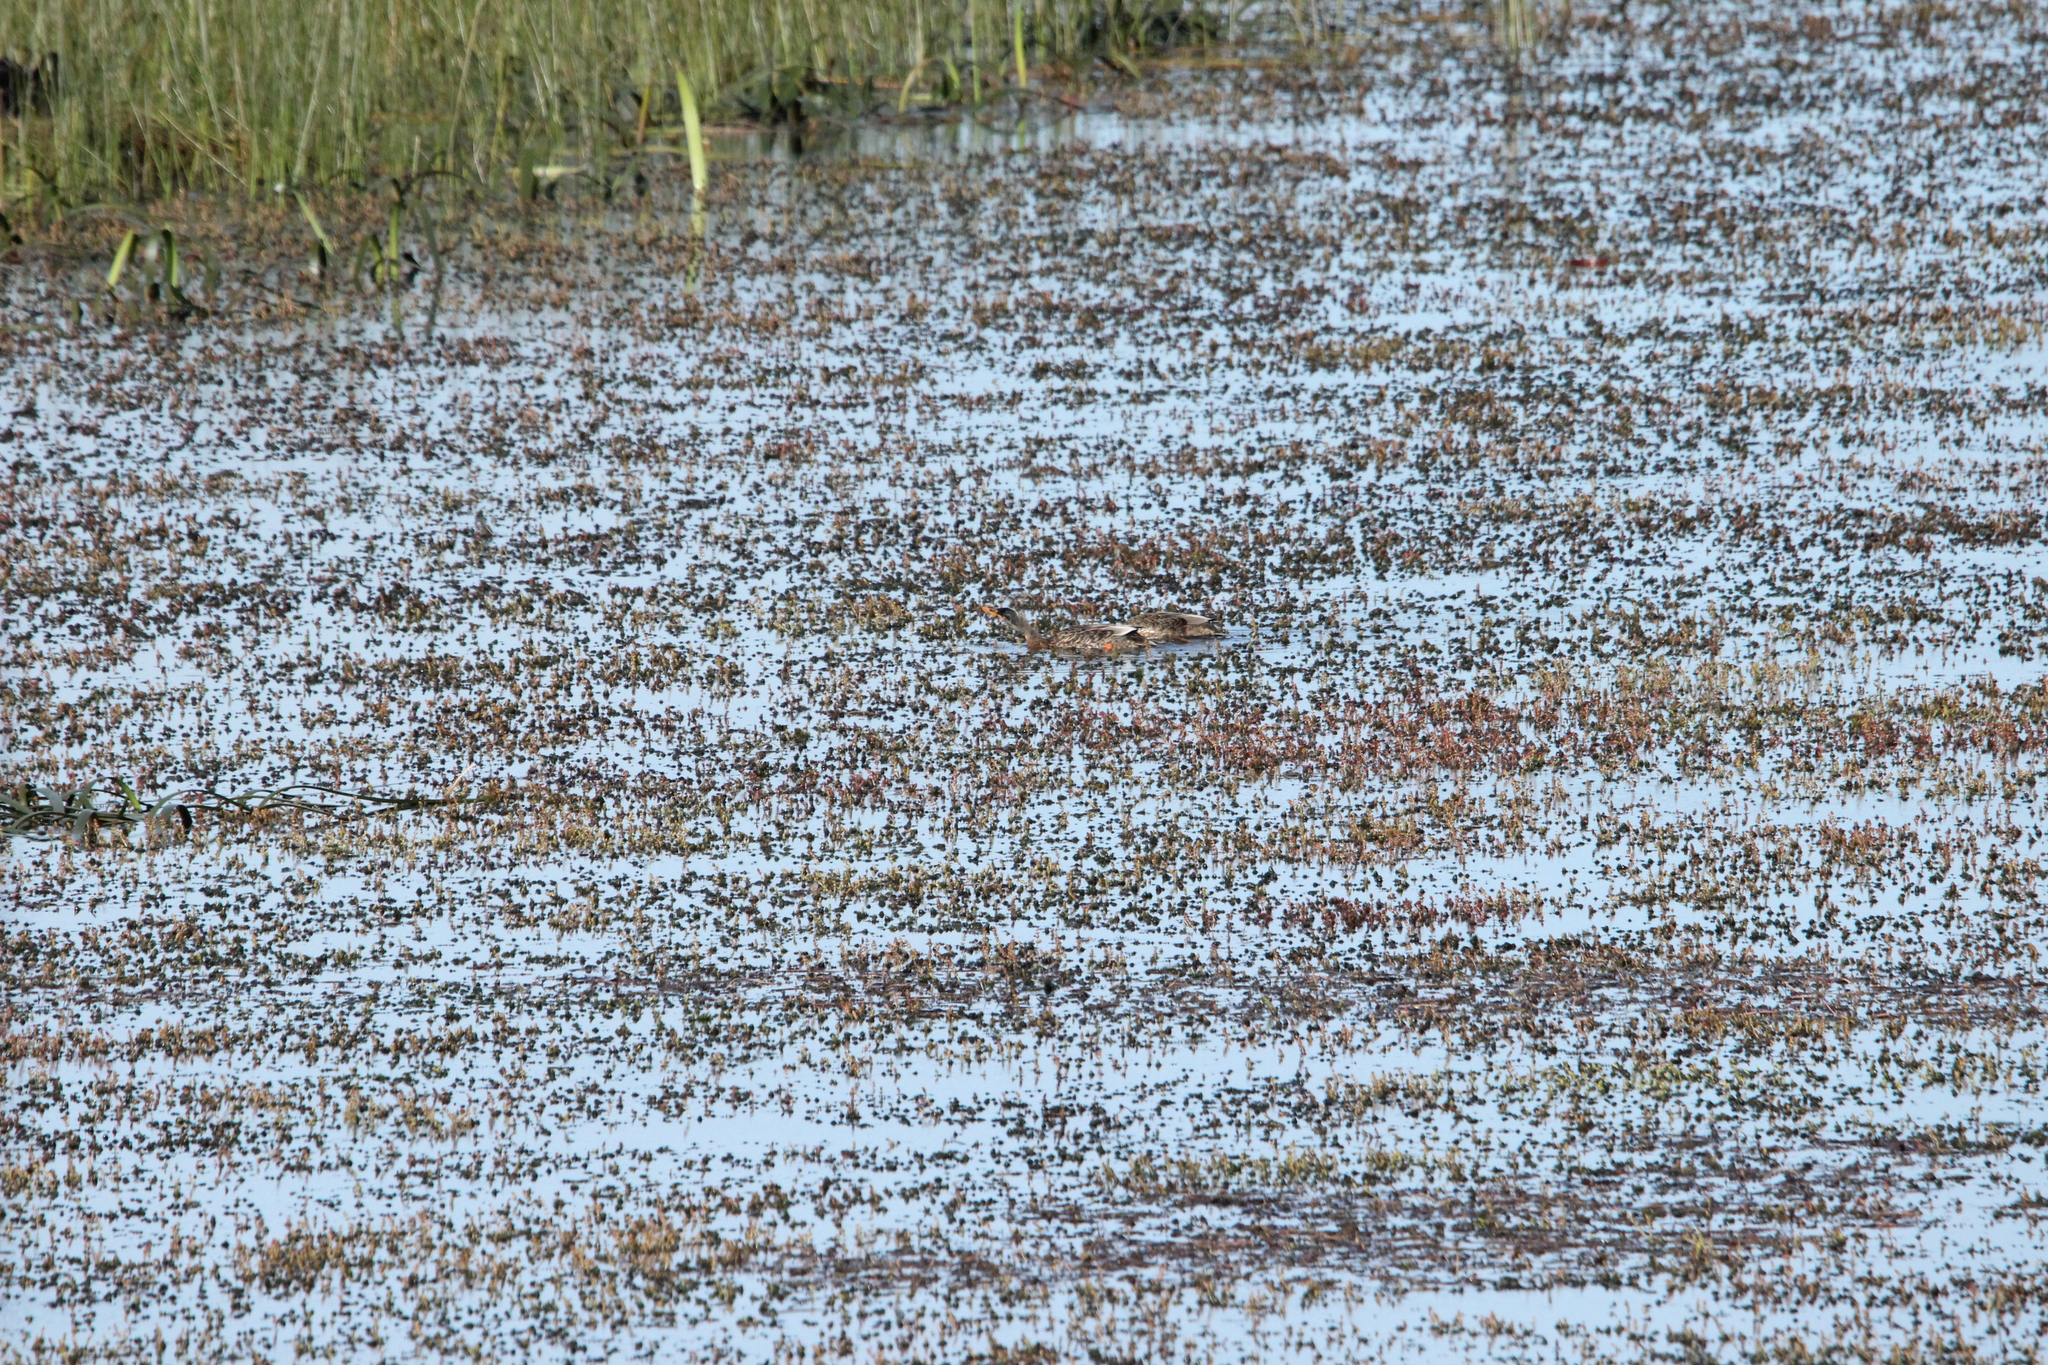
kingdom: Animalia
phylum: Chordata
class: Aves
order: Anseriformes
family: Anatidae
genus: Anas
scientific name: Anas platyrhynchos
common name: Mallard
